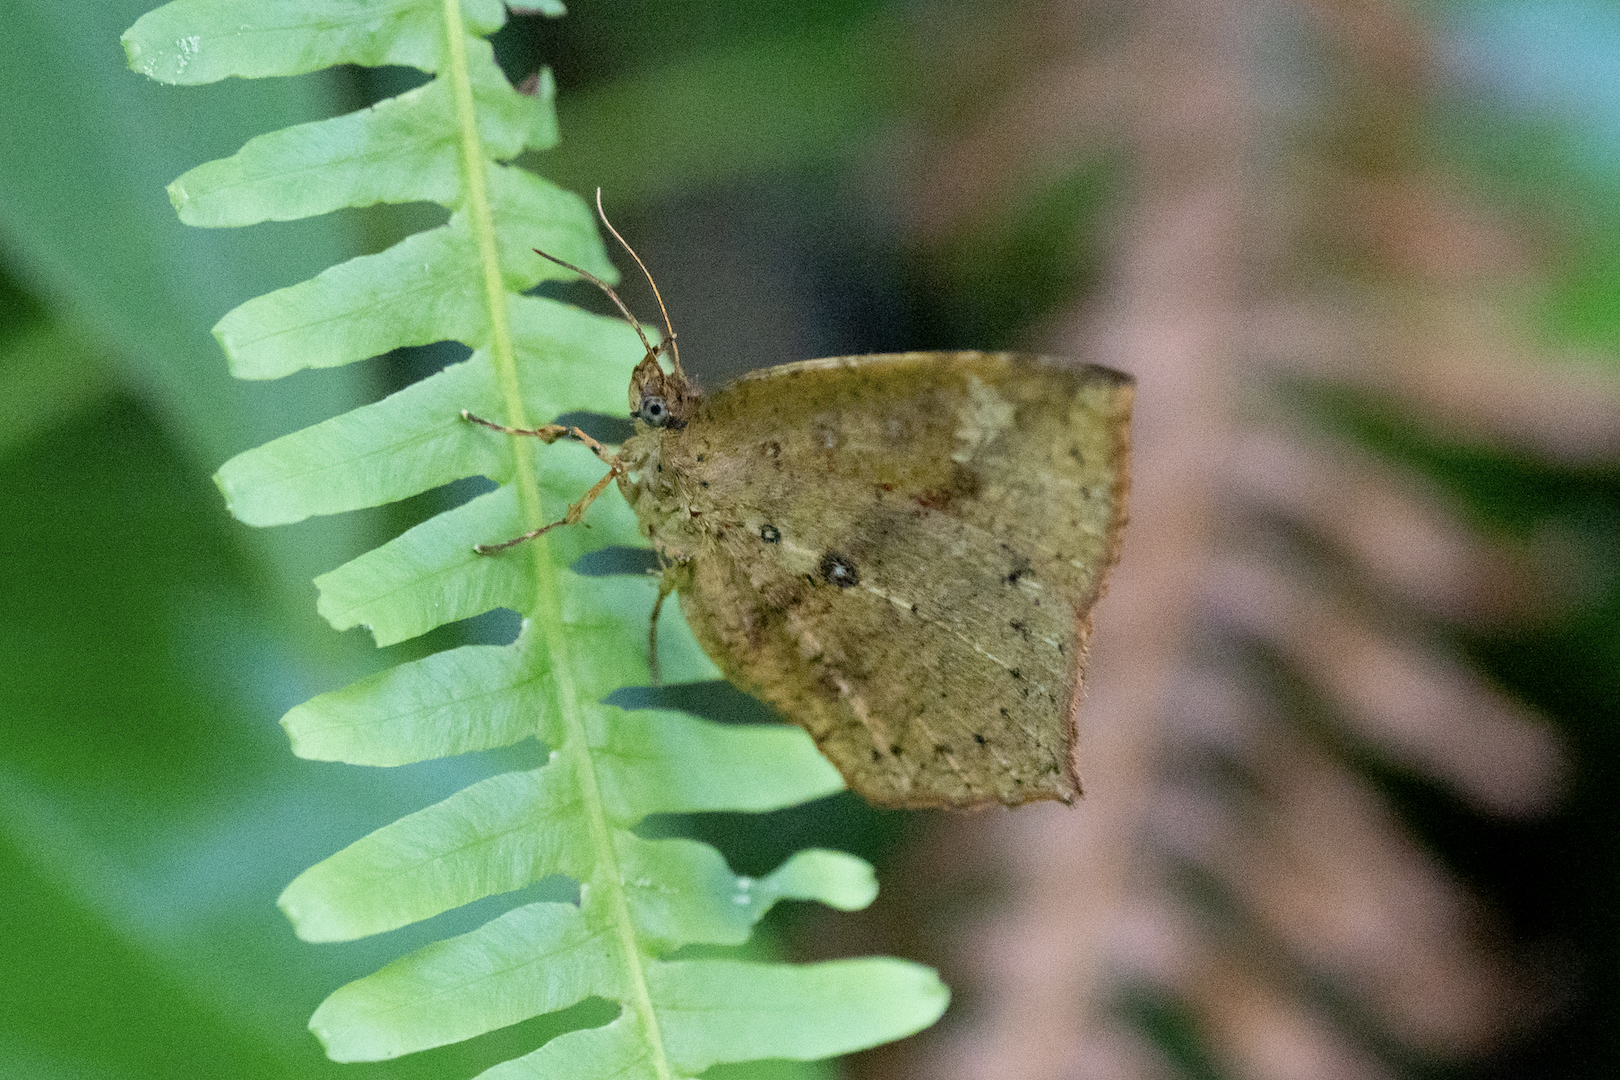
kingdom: Animalia
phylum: Arthropoda
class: Insecta
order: Lepidoptera
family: Callidulidae
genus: Tetragonus
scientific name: Tetragonus catamitus
